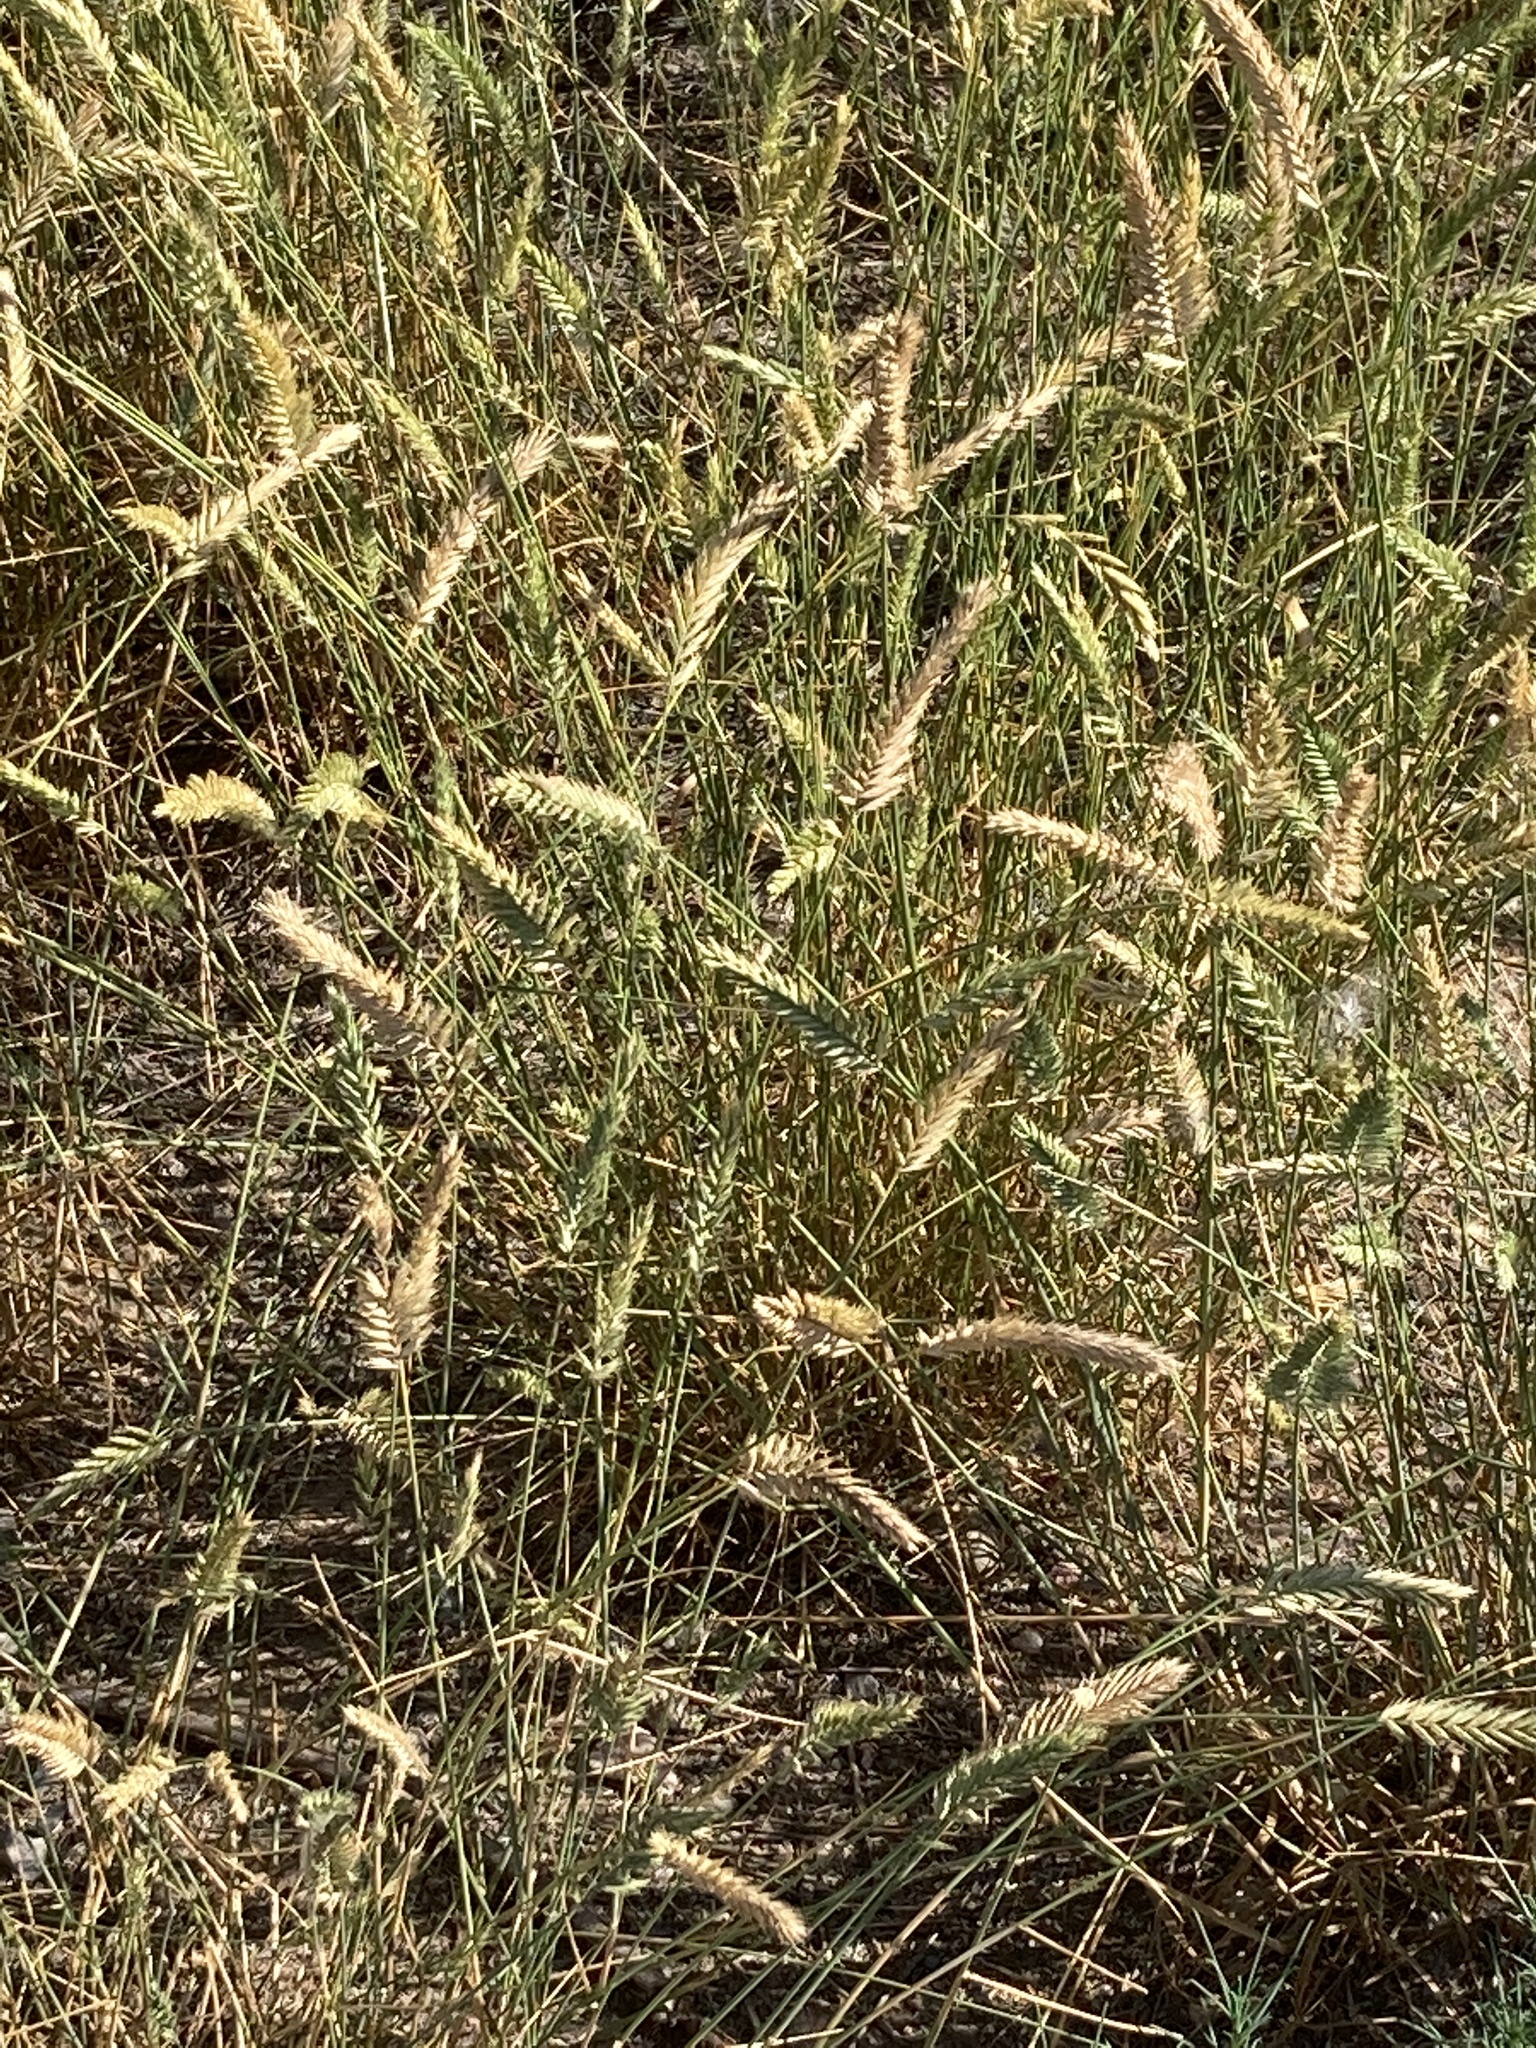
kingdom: Plantae
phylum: Tracheophyta
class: Liliopsida
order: Poales
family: Poaceae
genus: Agropyron
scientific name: Agropyron cristatum
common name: Crested wheatgrass
